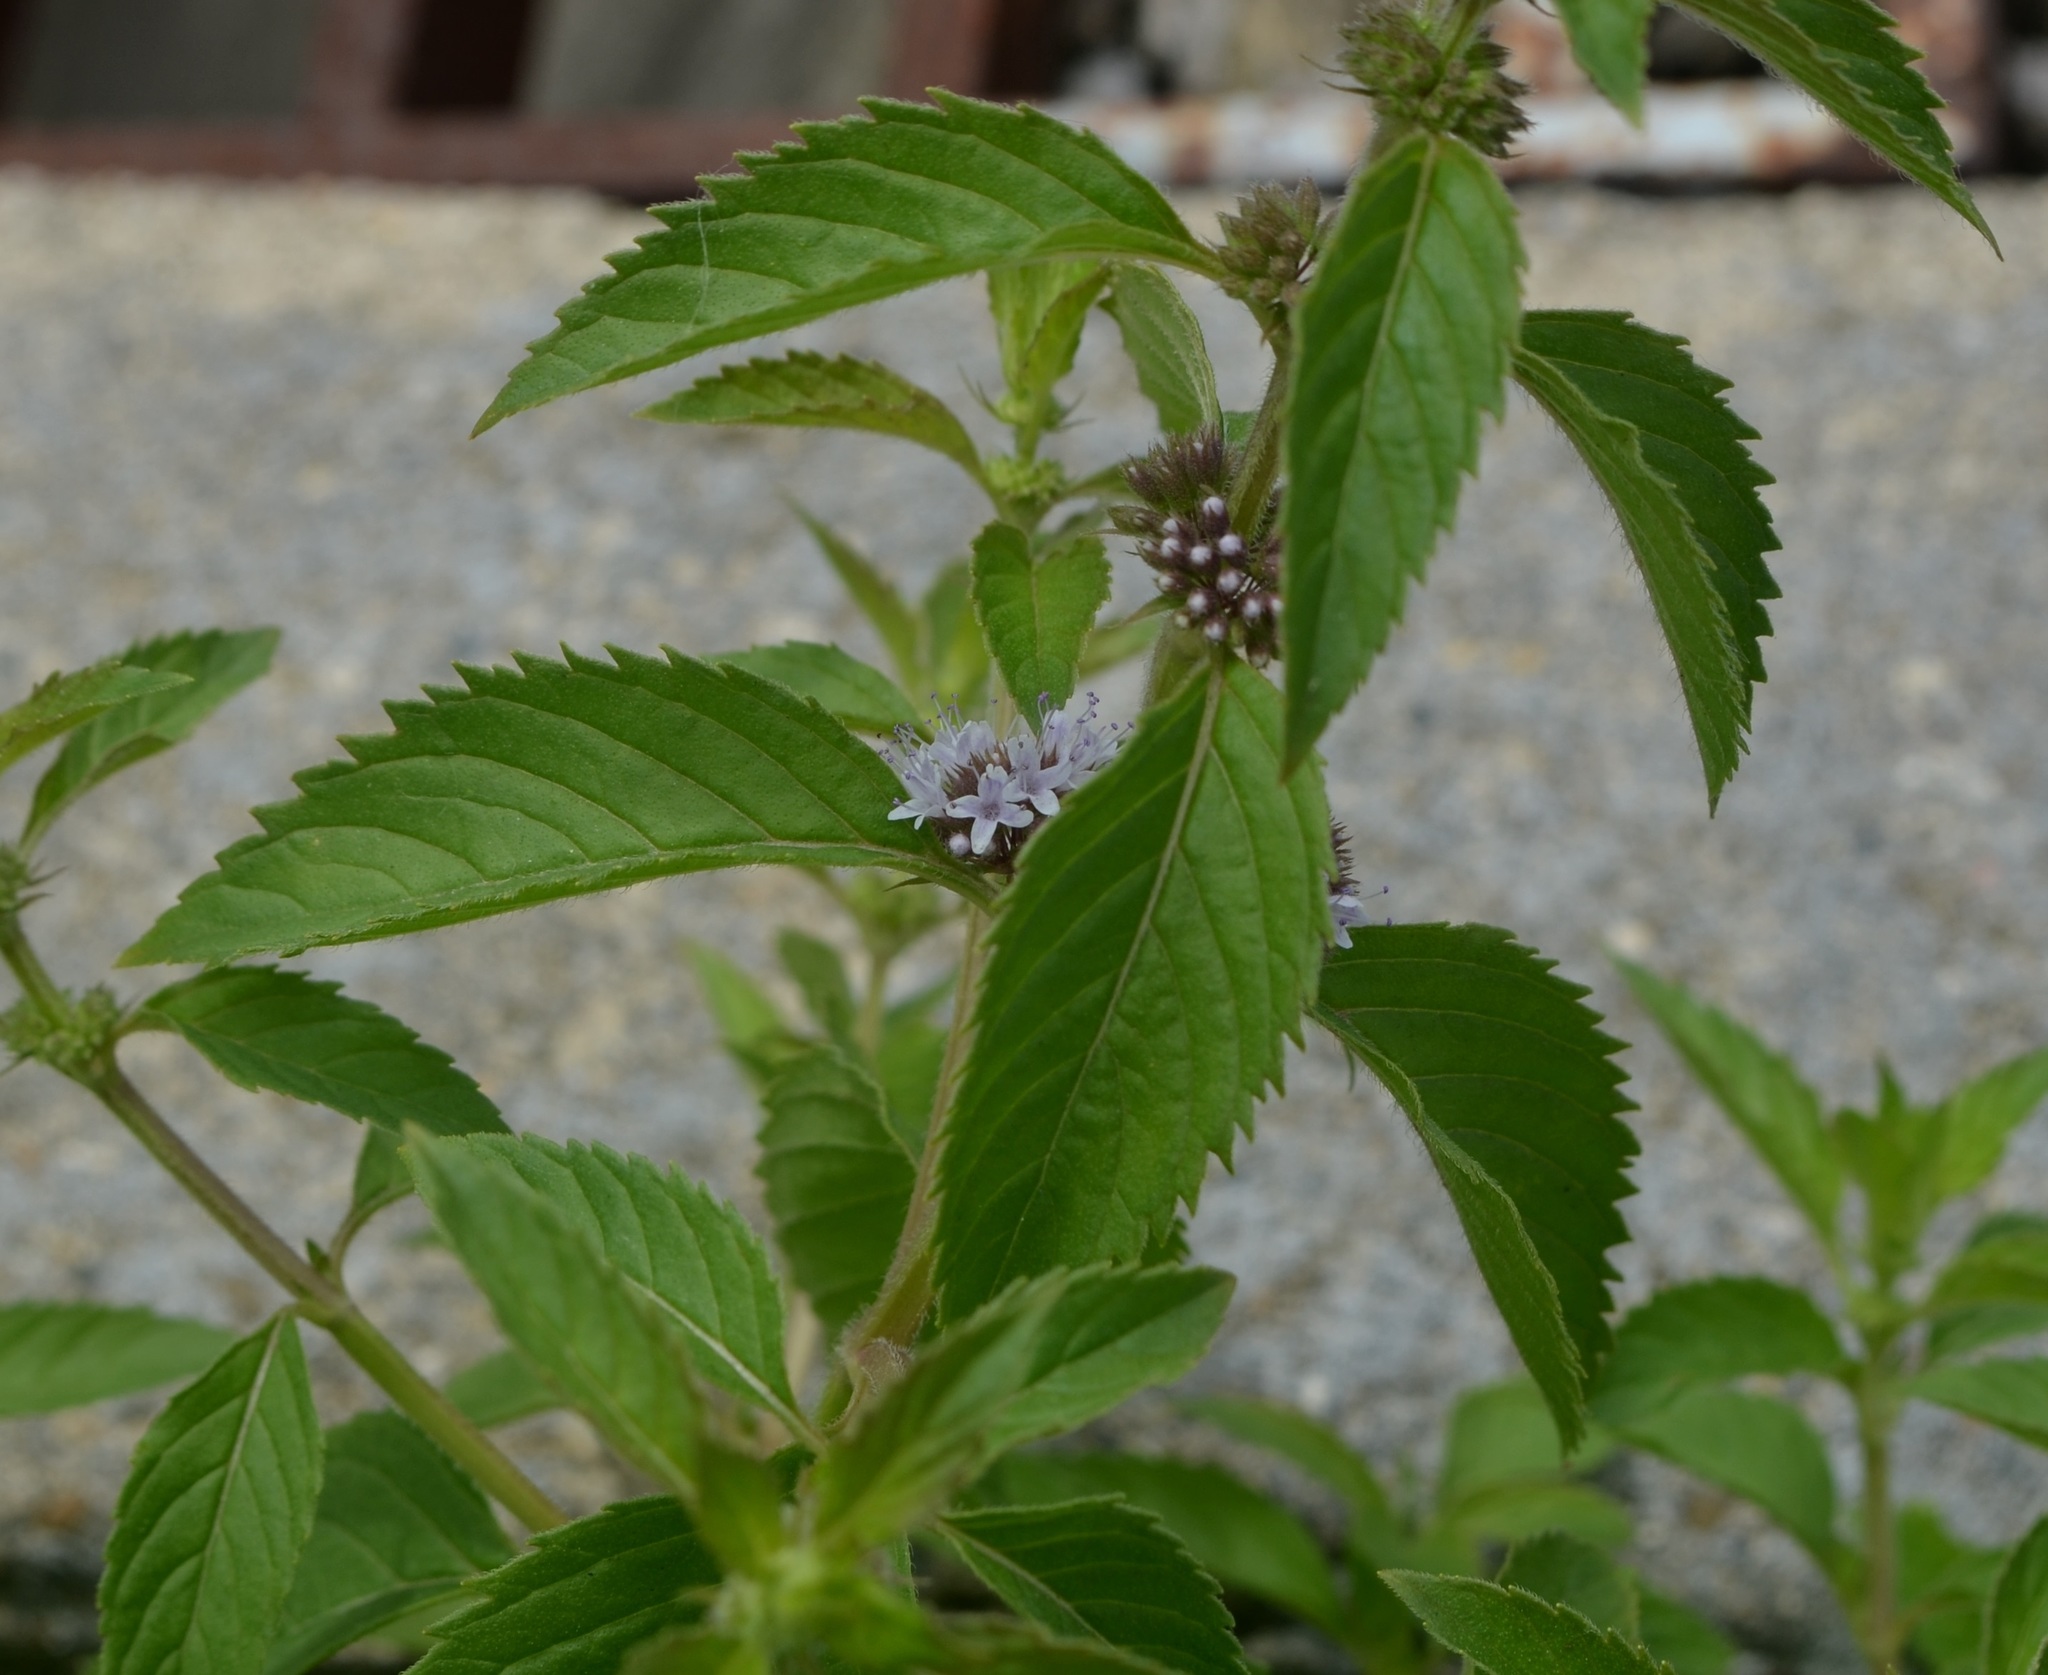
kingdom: Plantae
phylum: Tracheophyta
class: Magnoliopsida
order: Lamiales
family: Lamiaceae
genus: Mentha
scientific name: Mentha arvensis
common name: Corn mint
